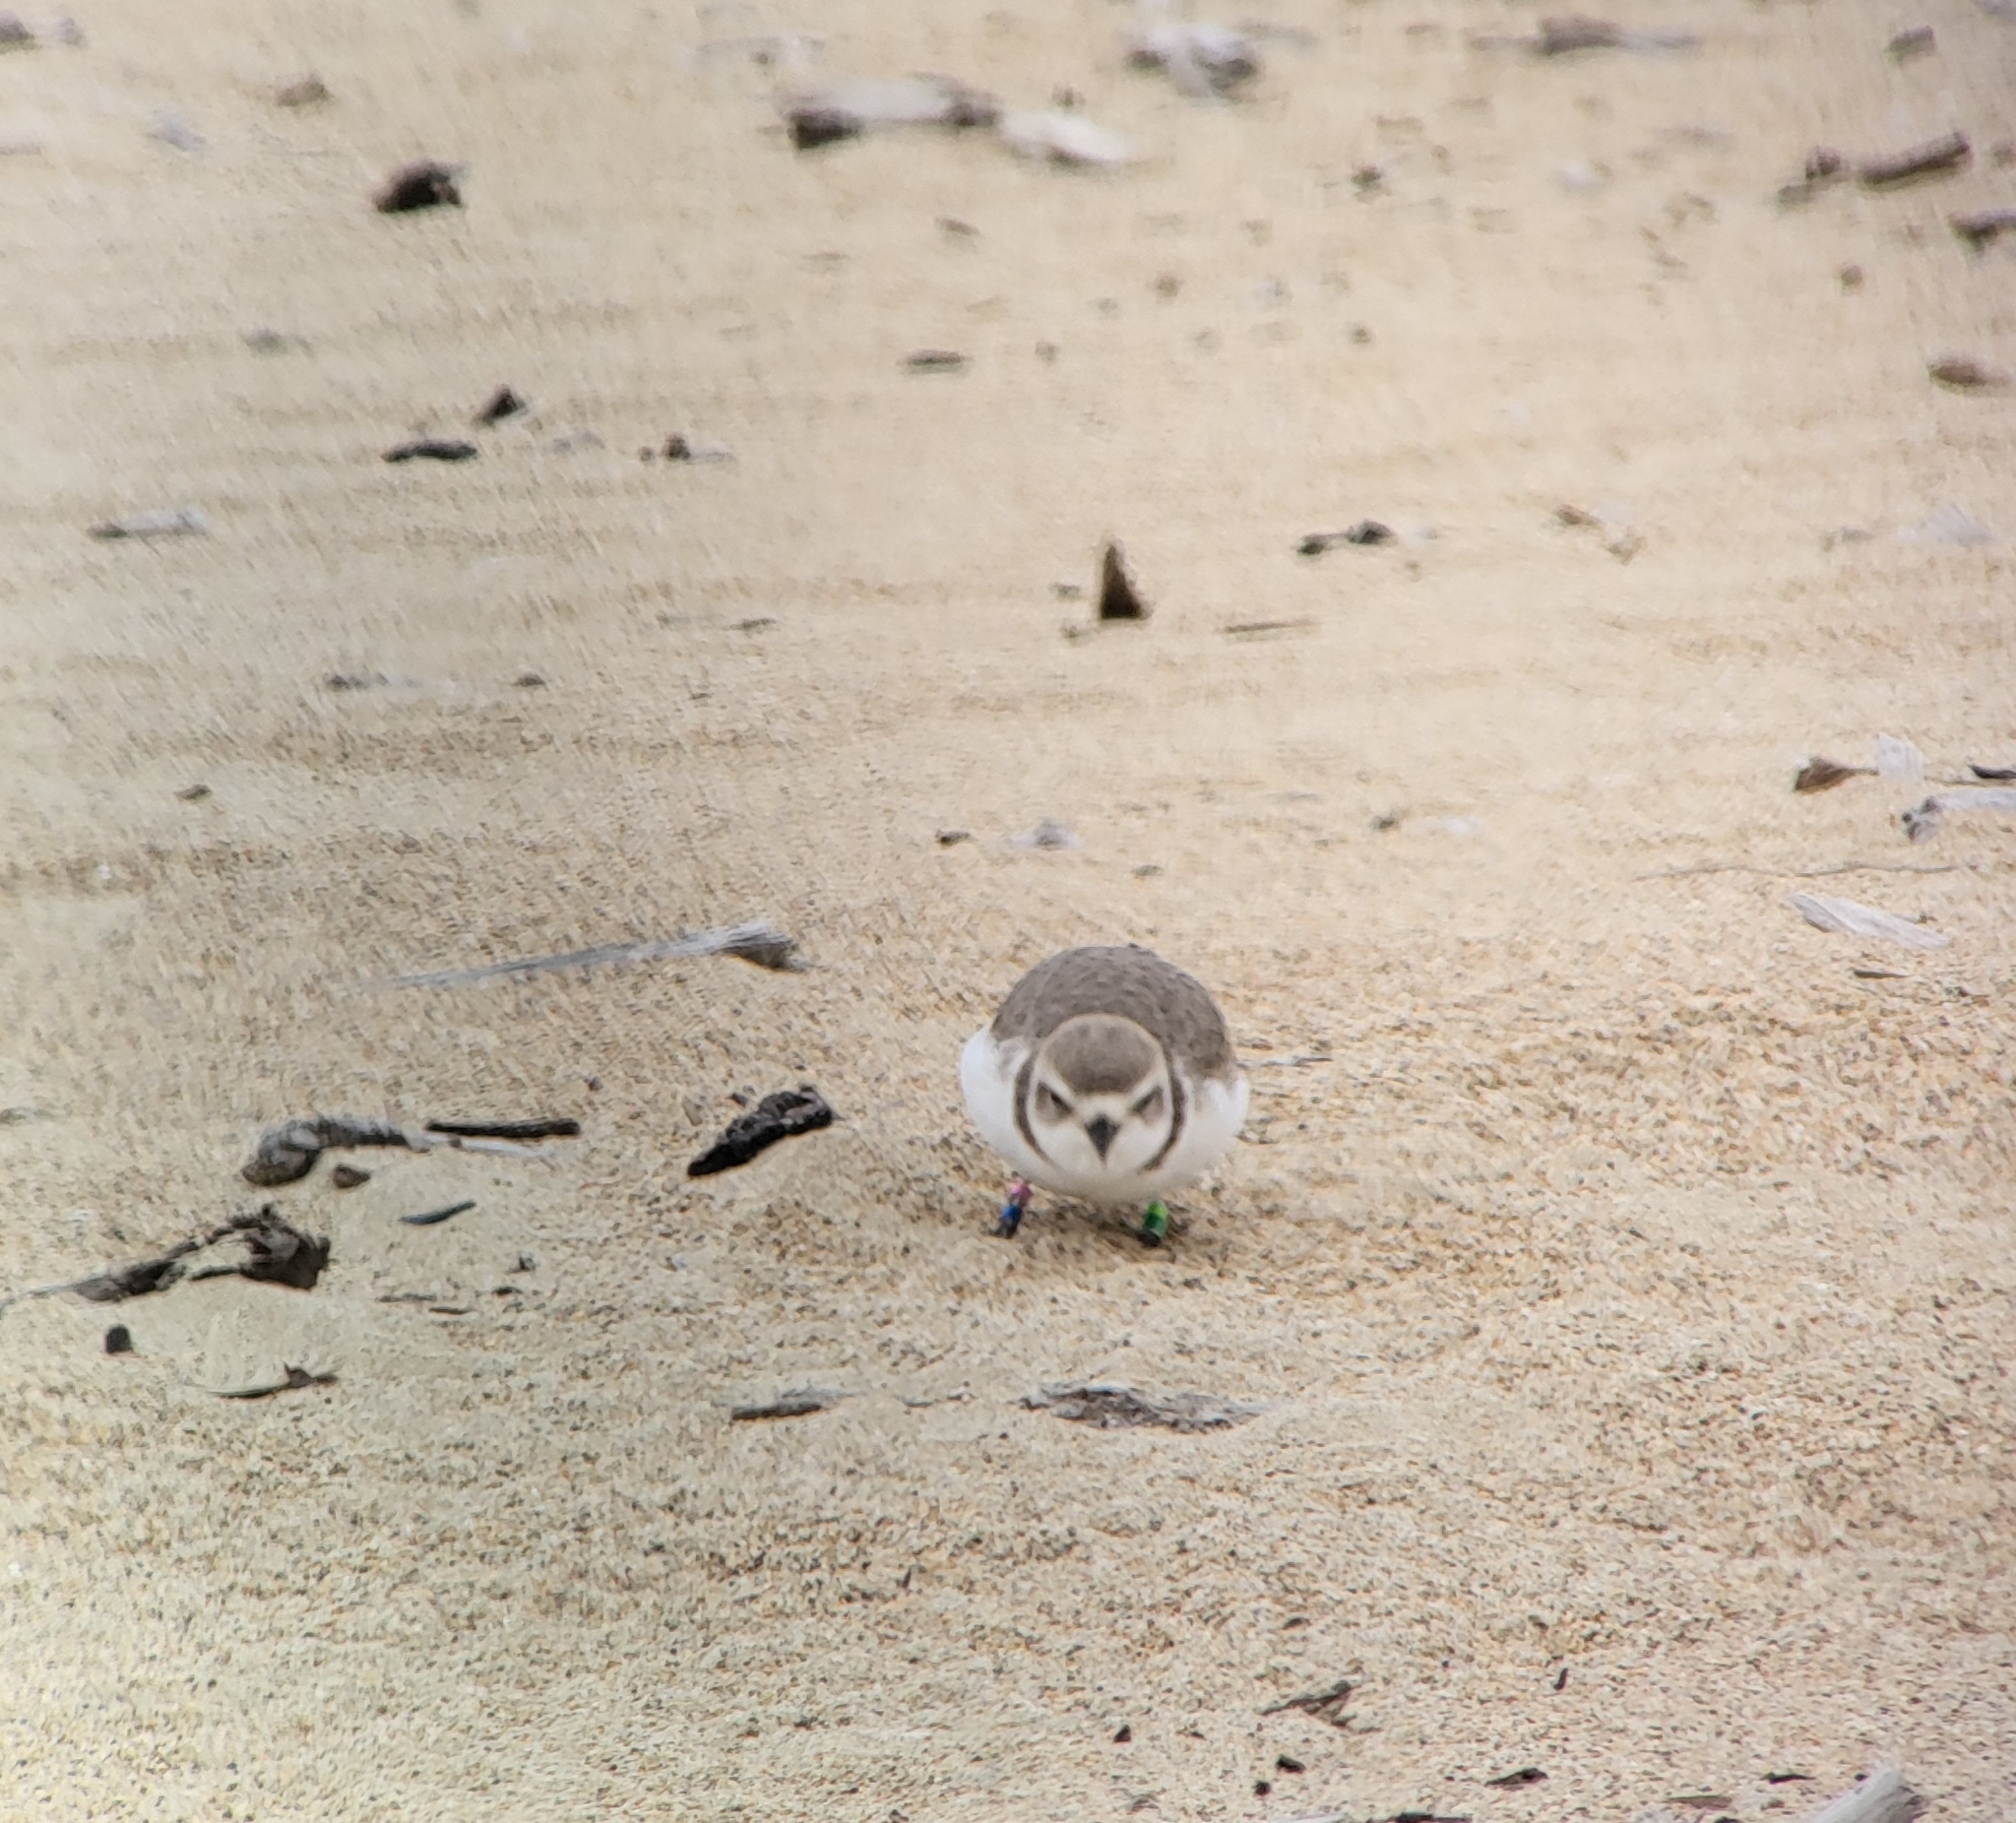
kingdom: Animalia
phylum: Chordata
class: Aves
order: Charadriiformes
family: Charadriidae
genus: Anarhynchus
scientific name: Anarhynchus
